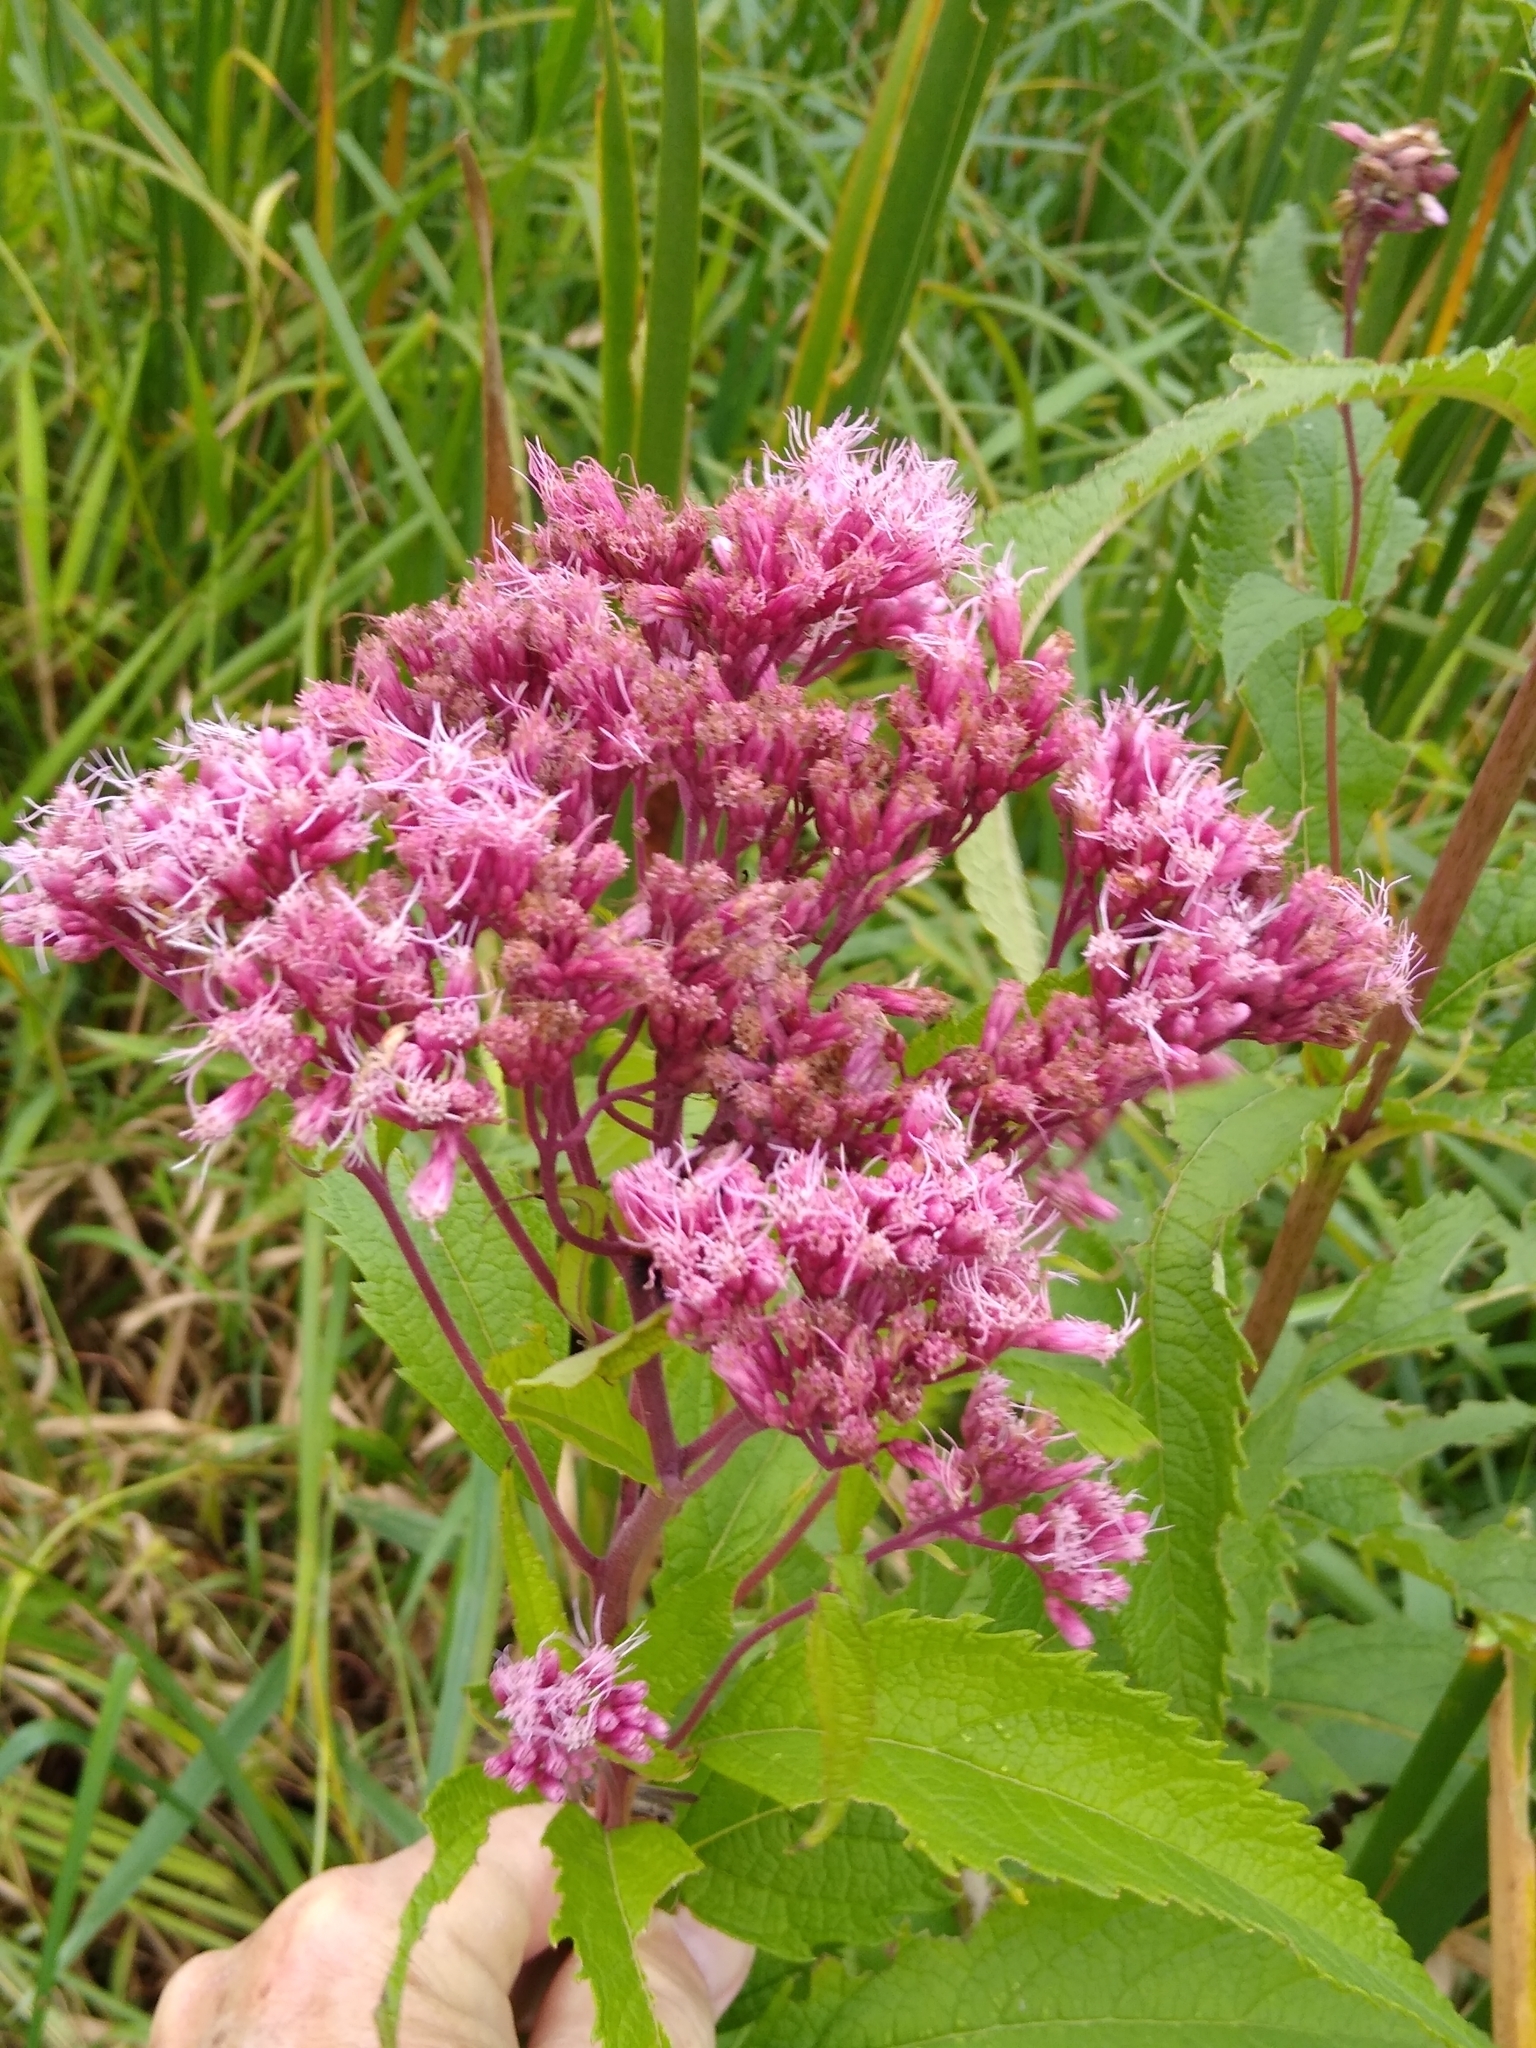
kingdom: Plantae
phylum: Tracheophyta
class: Magnoliopsida
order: Asterales
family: Asteraceae
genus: Eutrochium
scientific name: Eutrochium maculatum
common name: Spotted joe pye weed
